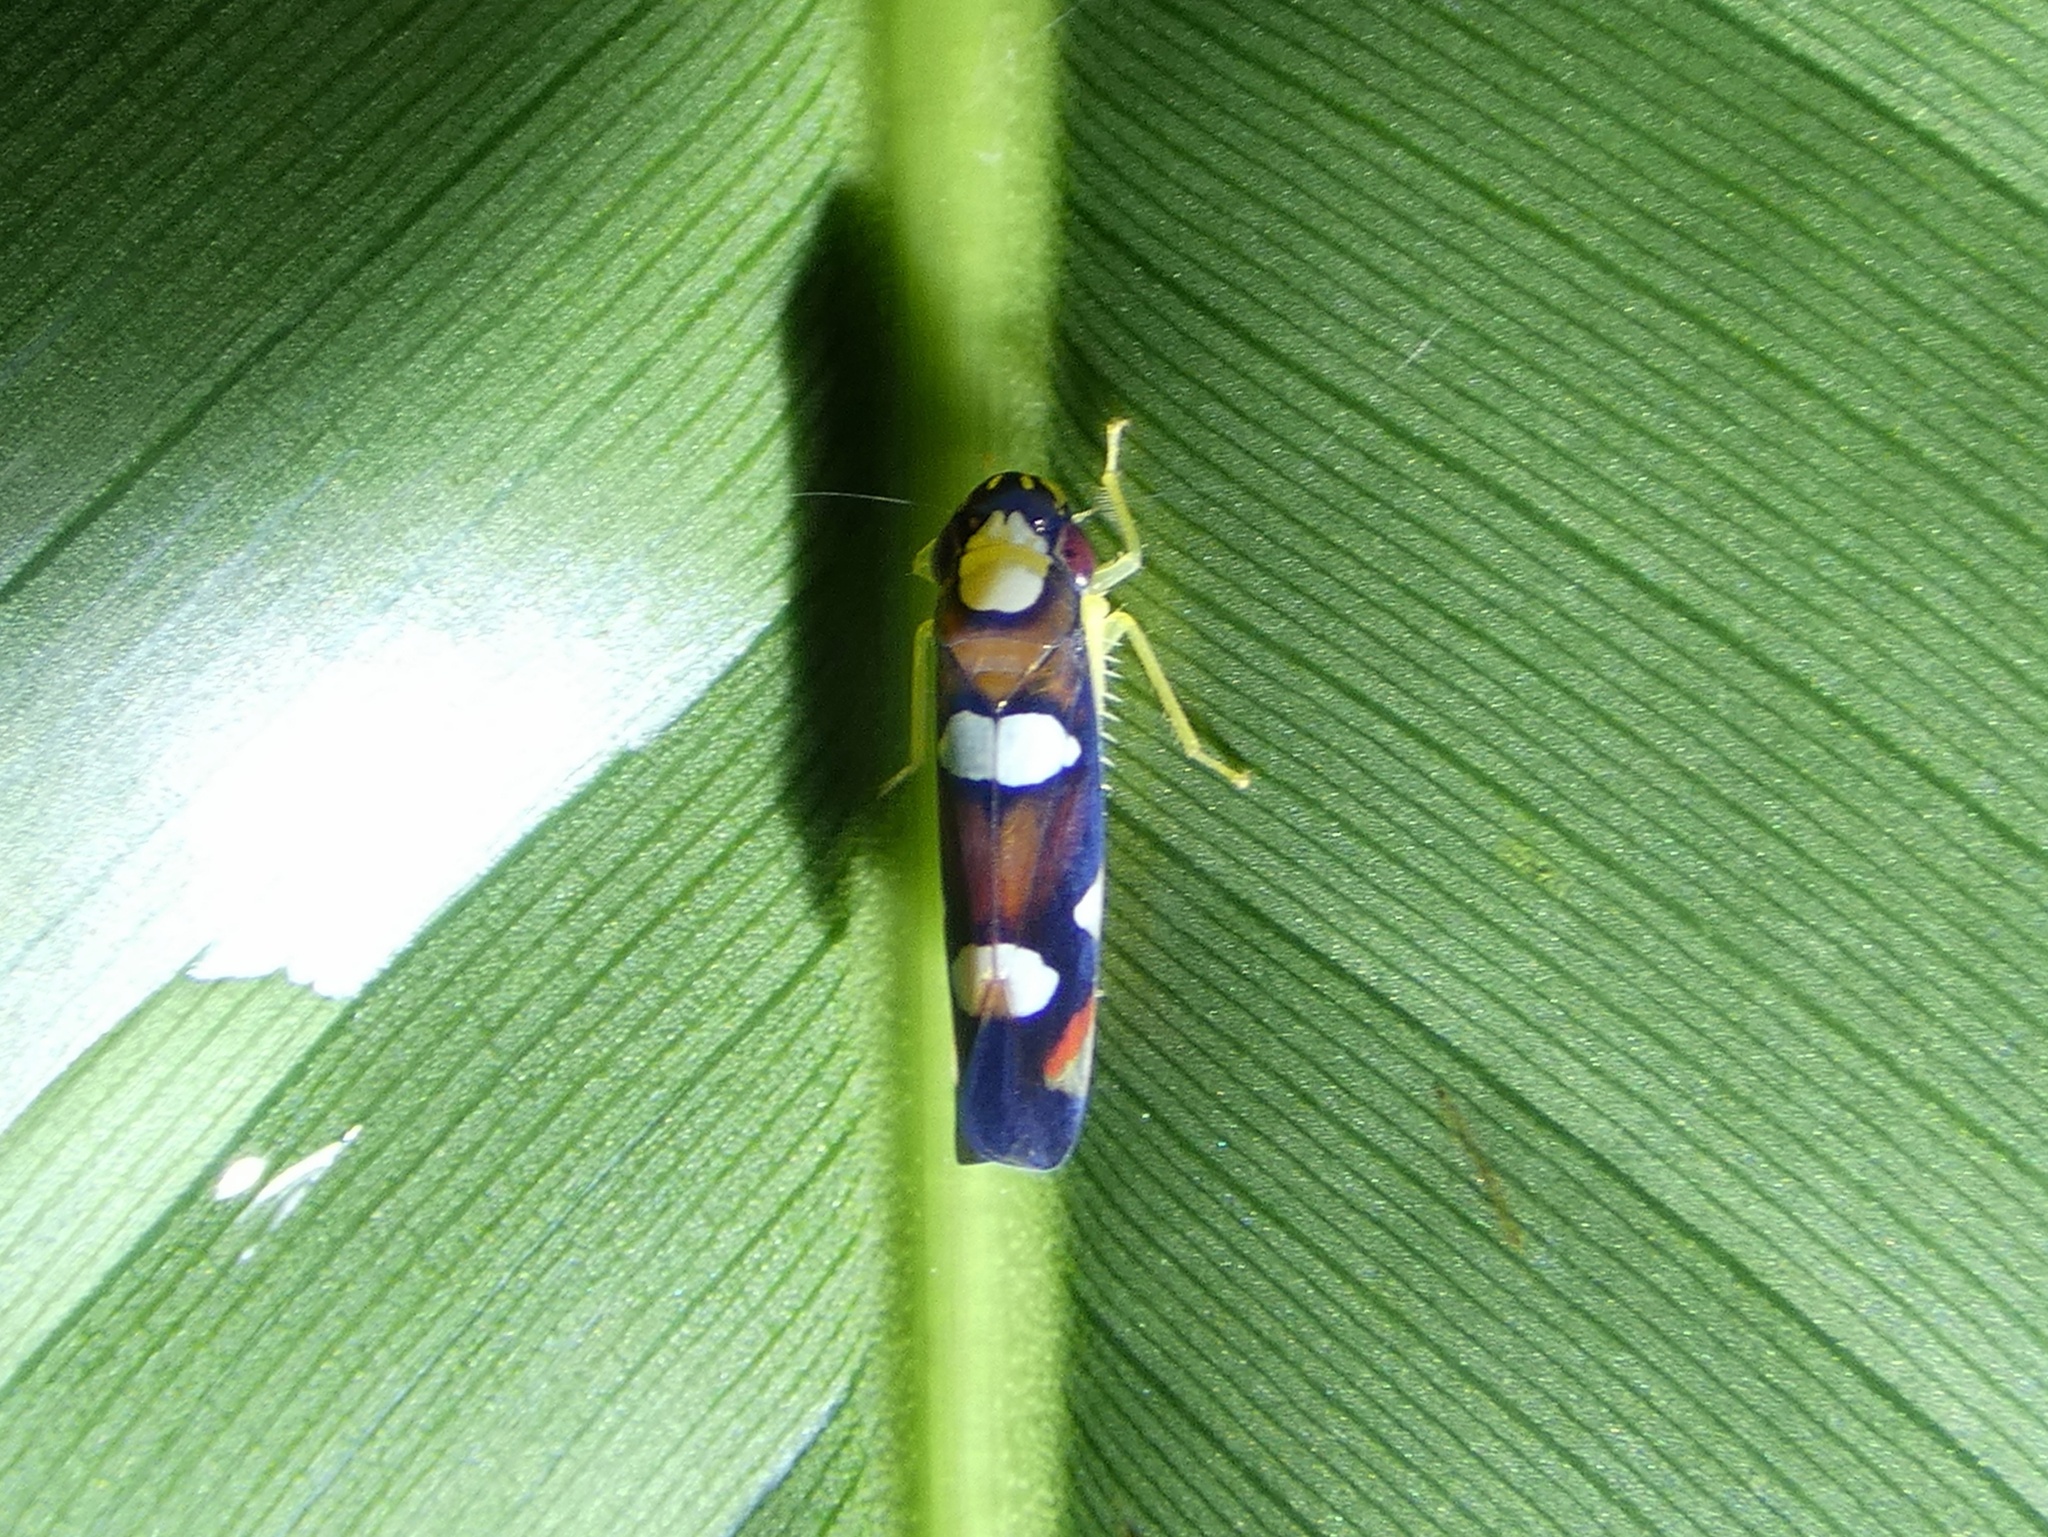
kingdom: Animalia
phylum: Arthropoda
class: Insecta
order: Hemiptera
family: Cicadellidae
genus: Erythrogonia
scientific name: Erythrogonia gossana
